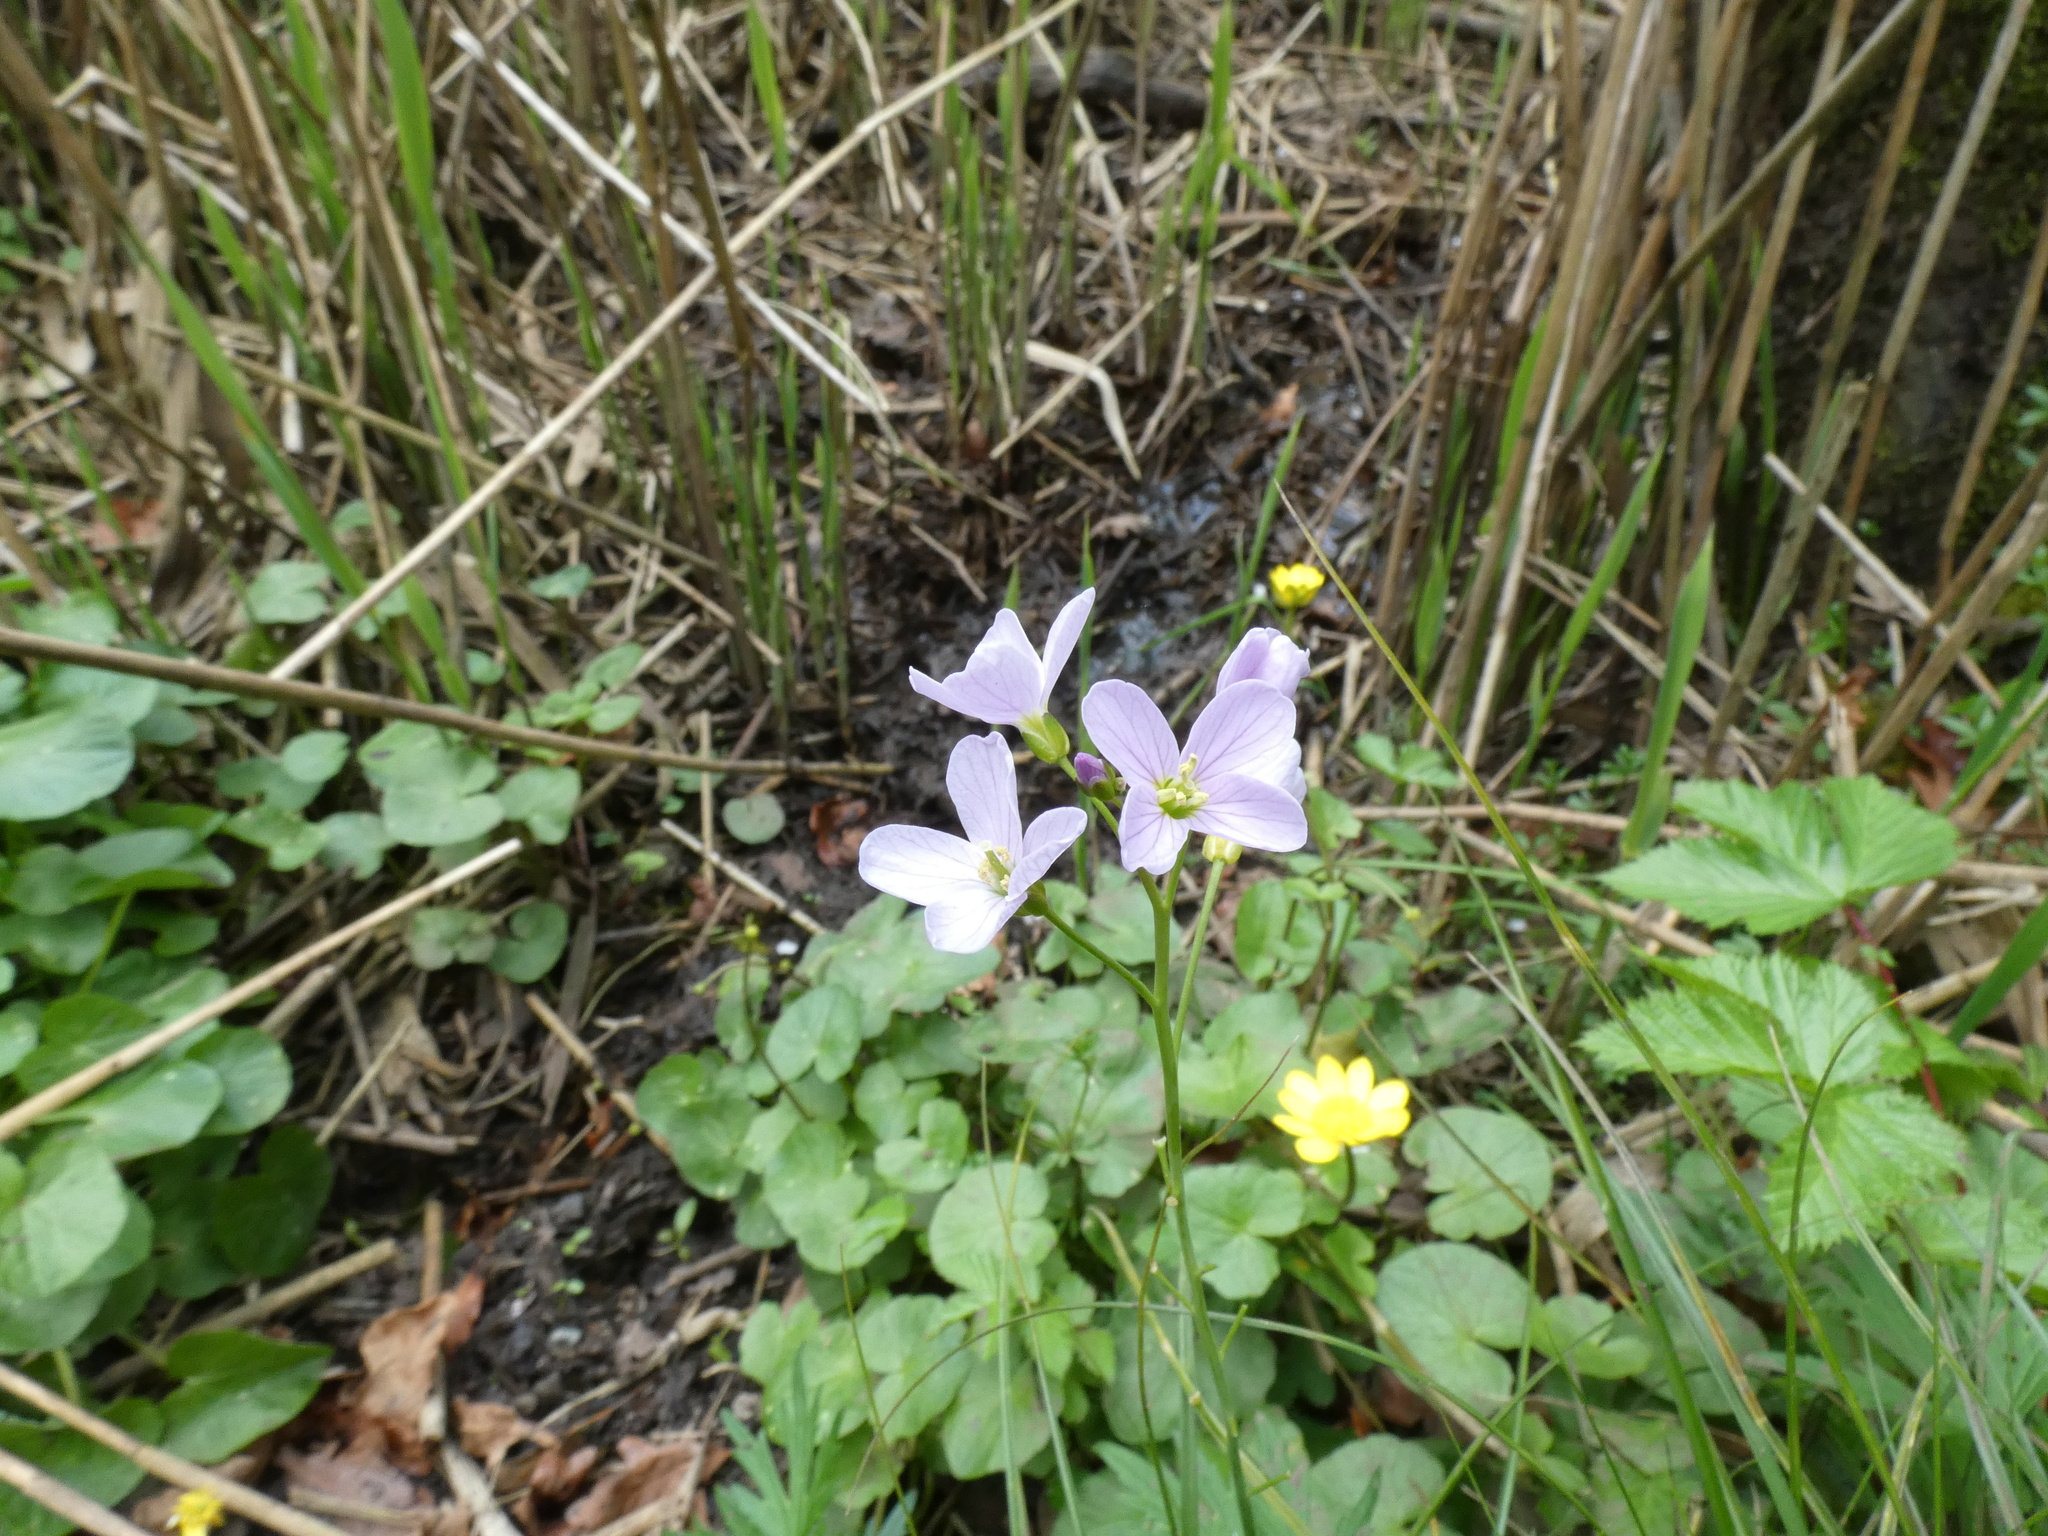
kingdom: Plantae
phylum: Tracheophyta
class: Magnoliopsida
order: Brassicales
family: Brassicaceae
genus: Cardamine
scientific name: Cardamine pratensis
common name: Cuckoo flower
